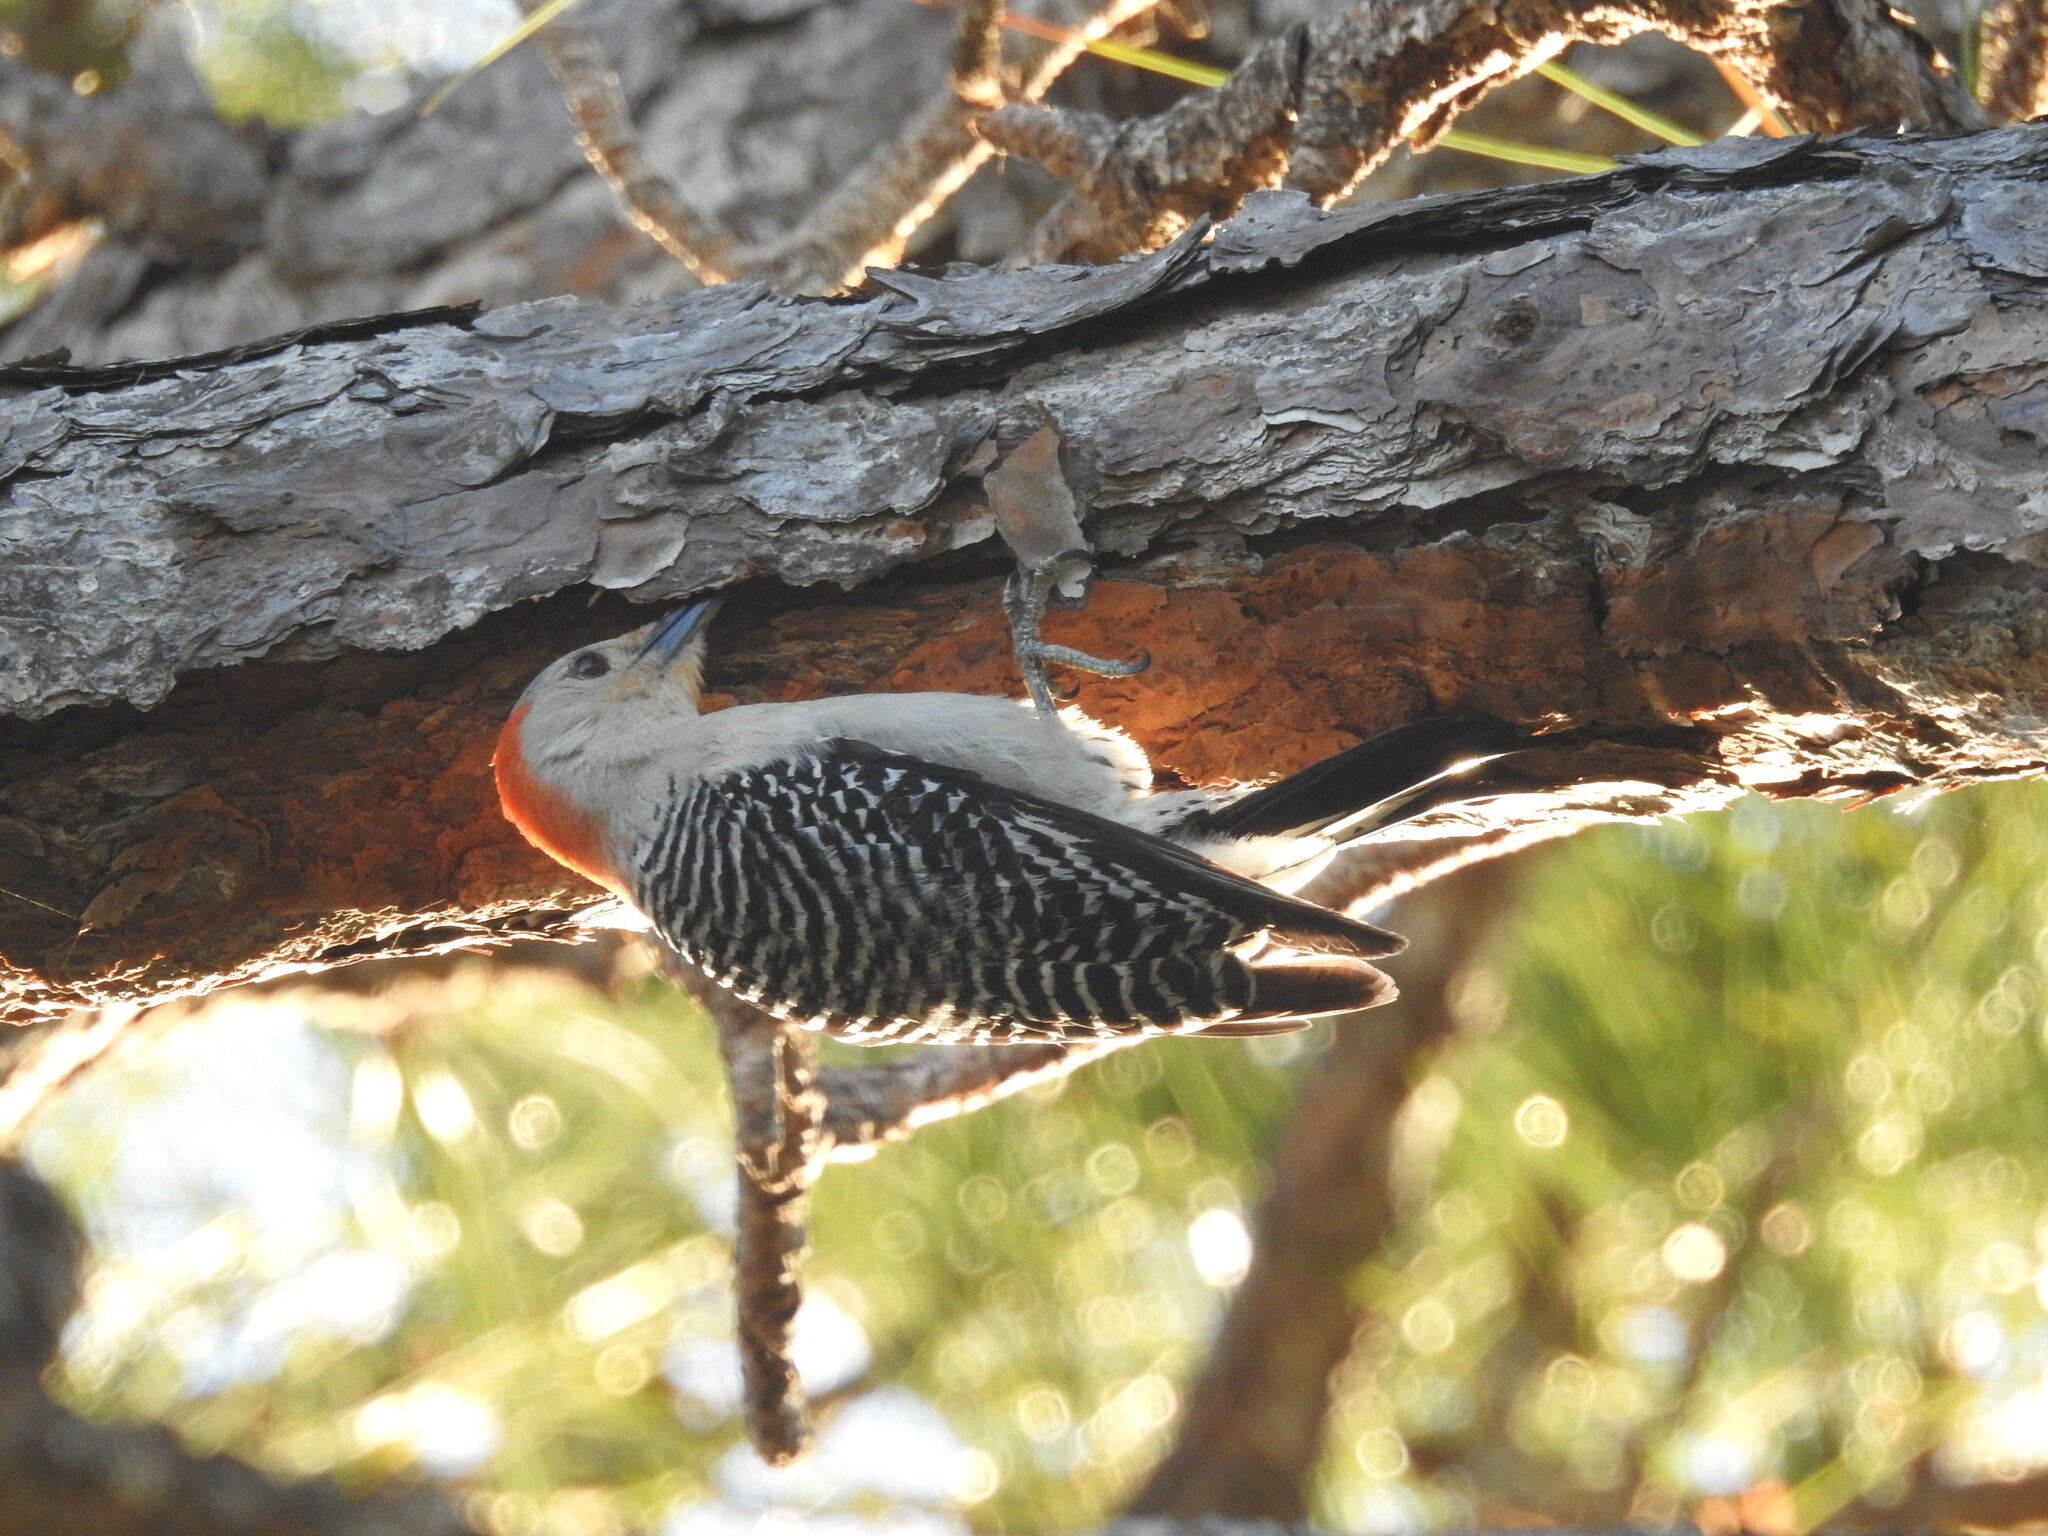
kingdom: Animalia
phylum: Chordata
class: Aves
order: Piciformes
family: Picidae
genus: Melanerpes
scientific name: Melanerpes carolinus
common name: Red-bellied woodpecker
